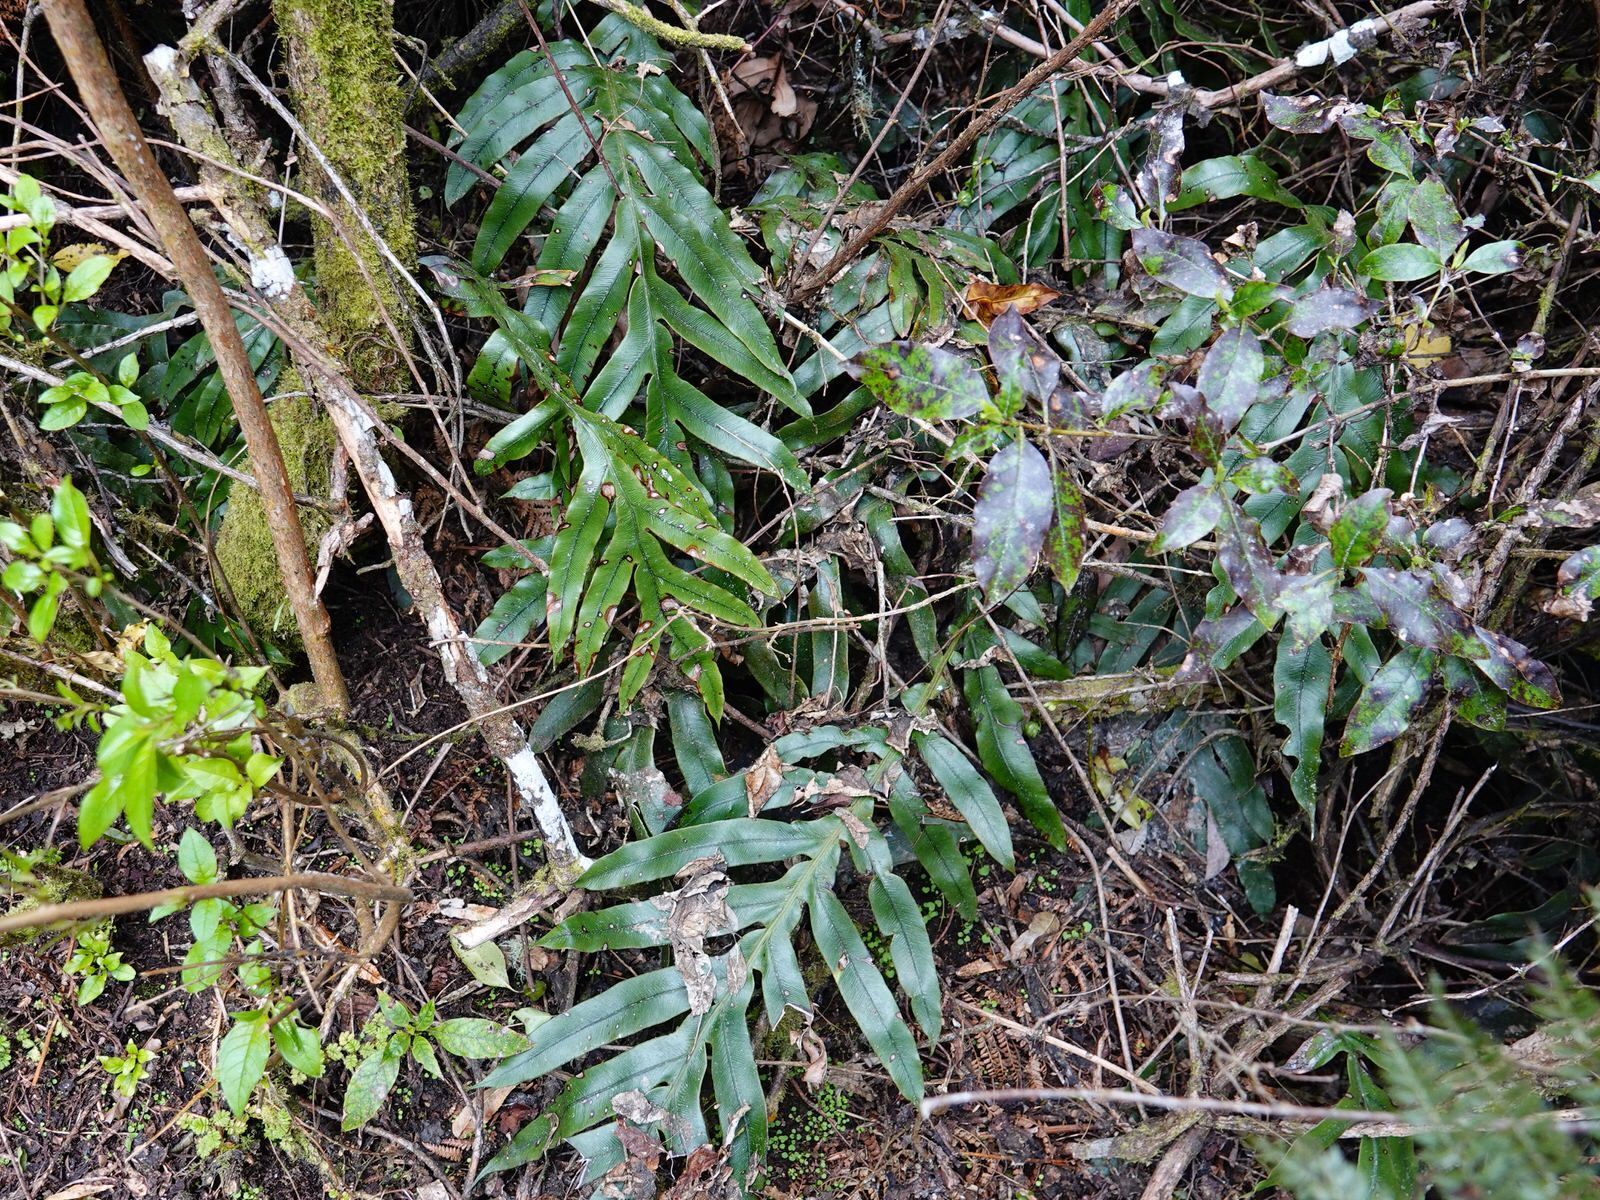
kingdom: Plantae
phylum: Tracheophyta
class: Polypodiopsida
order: Polypodiales
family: Blechnaceae
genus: Austroblechnum
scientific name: Austroblechnum colensoi
